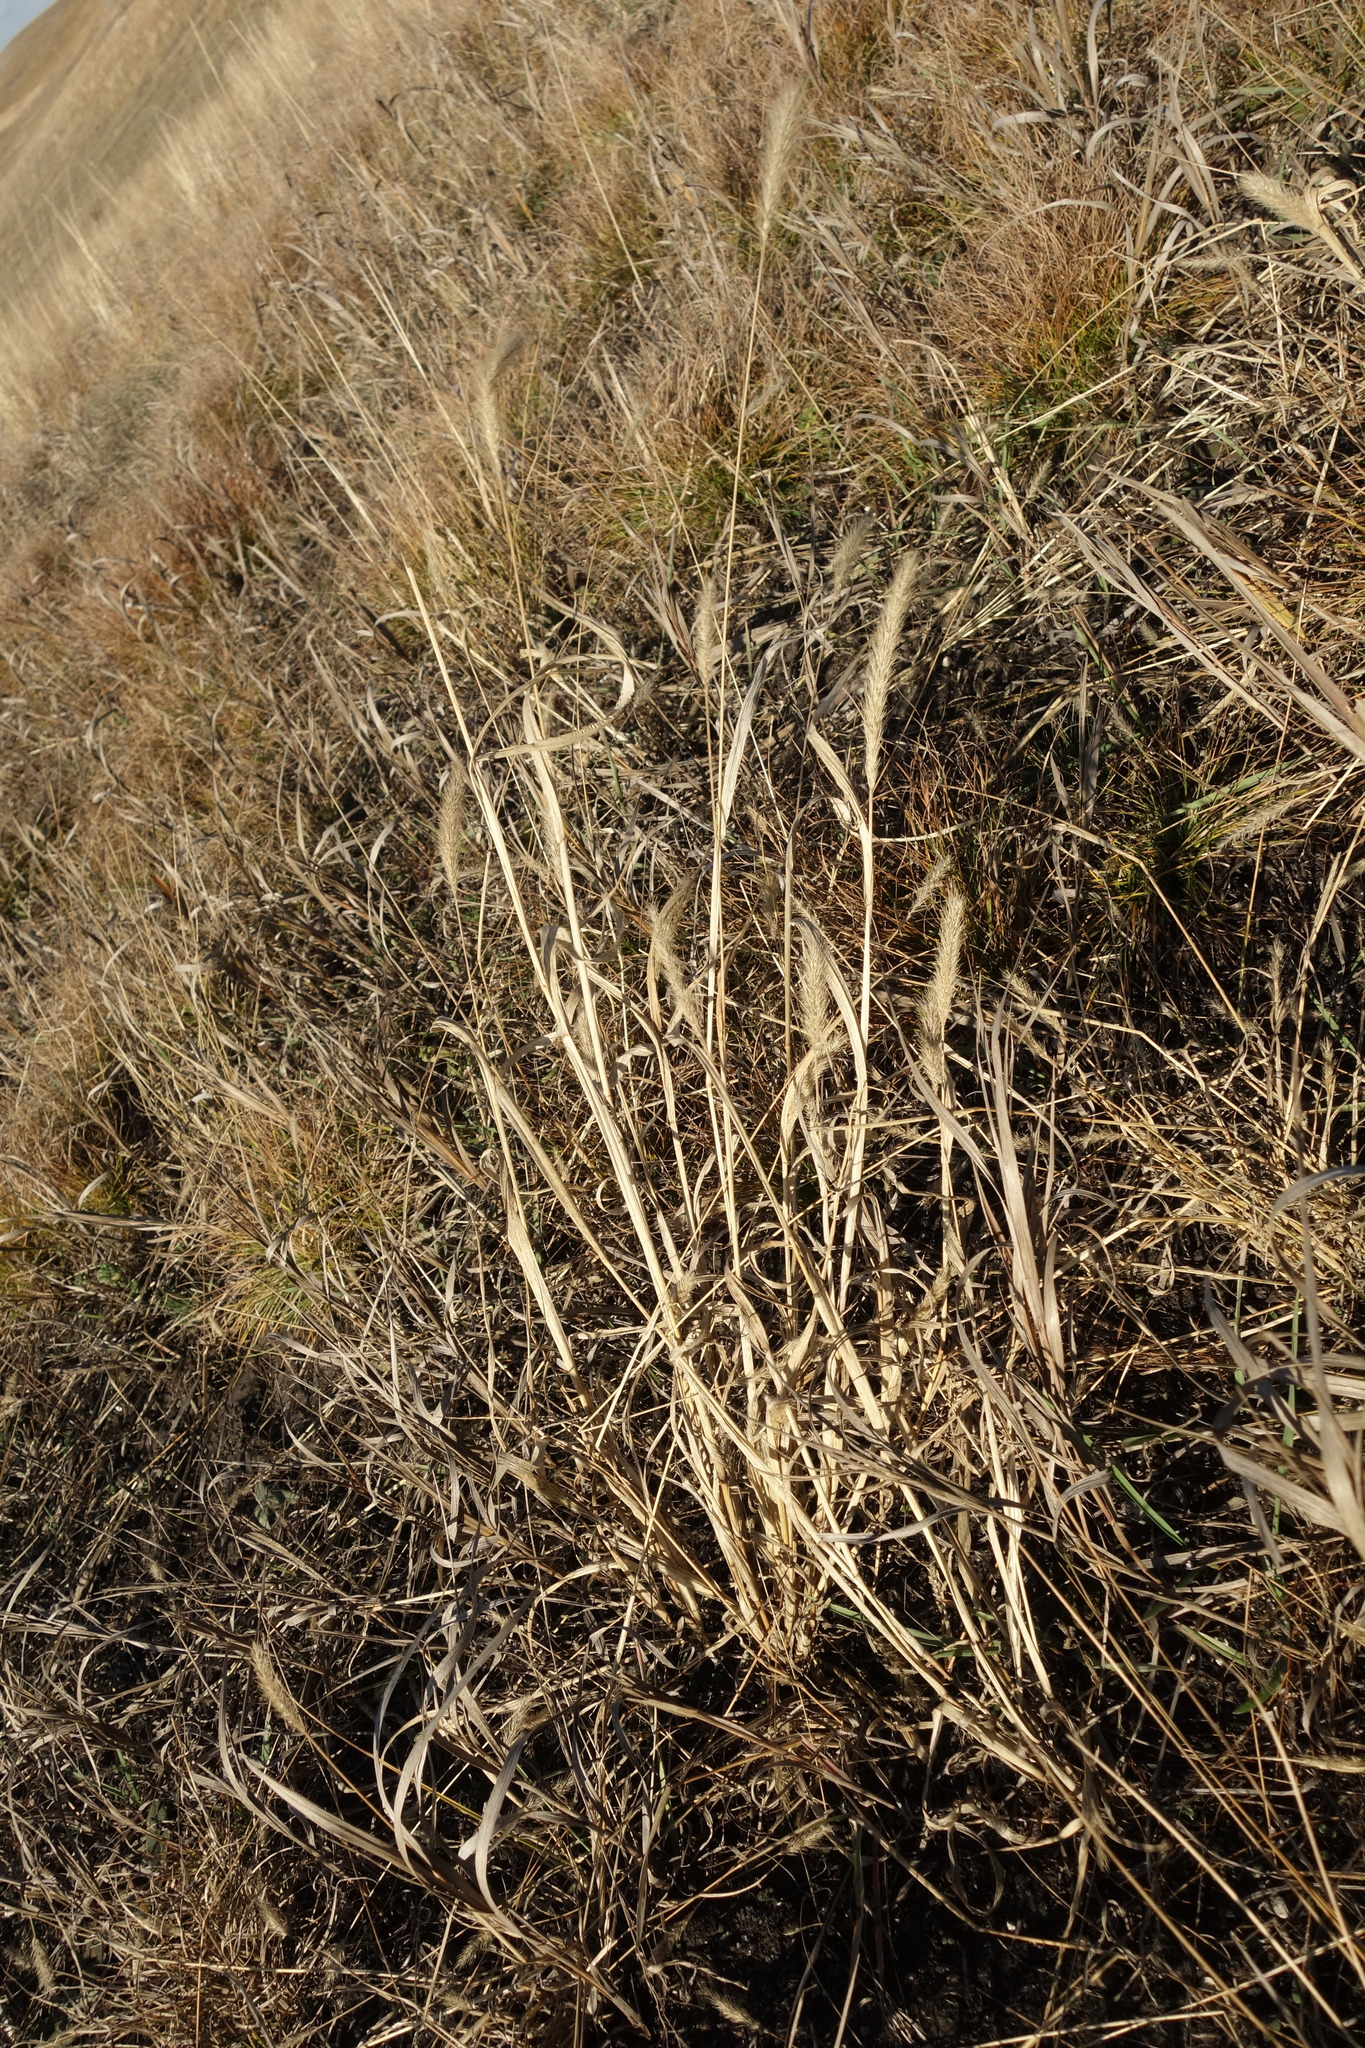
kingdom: Plantae
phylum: Tracheophyta
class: Liliopsida
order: Poales
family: Poaceae
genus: Setaria
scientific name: Setaria viridis
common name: Green bristlegrass
